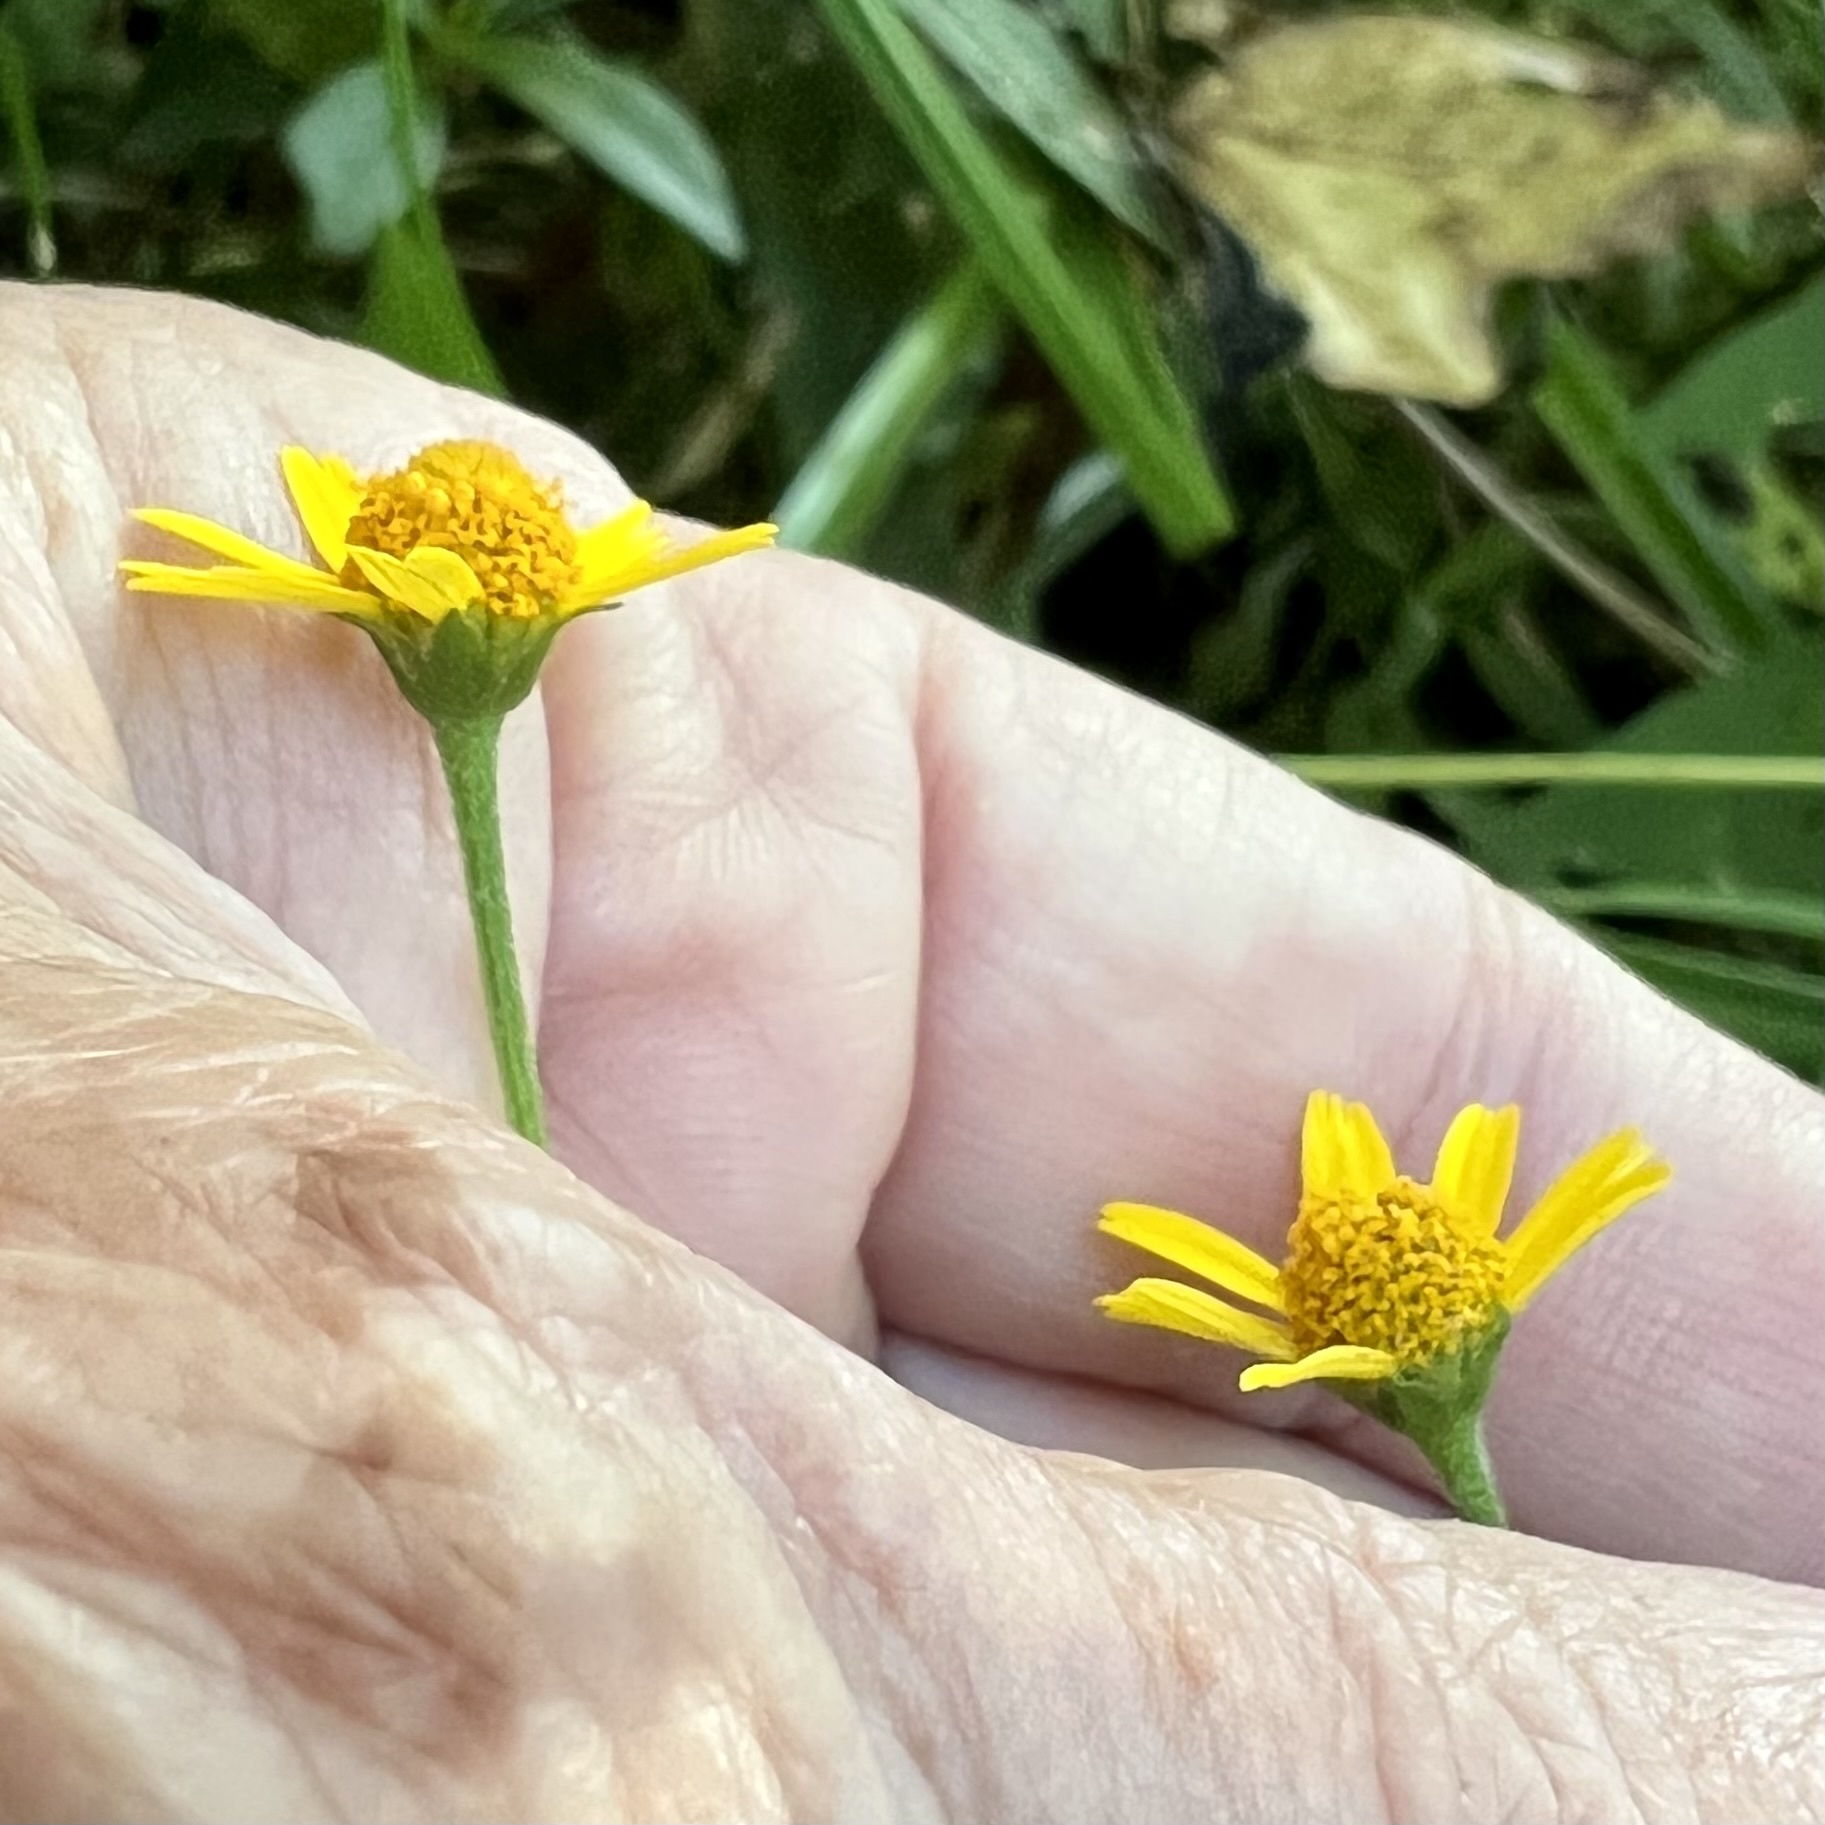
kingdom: Plantae
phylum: Tracheophyta
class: Magnoliopsida
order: Asterales
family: Asteraceae
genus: Acmella
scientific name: Acmella repens
